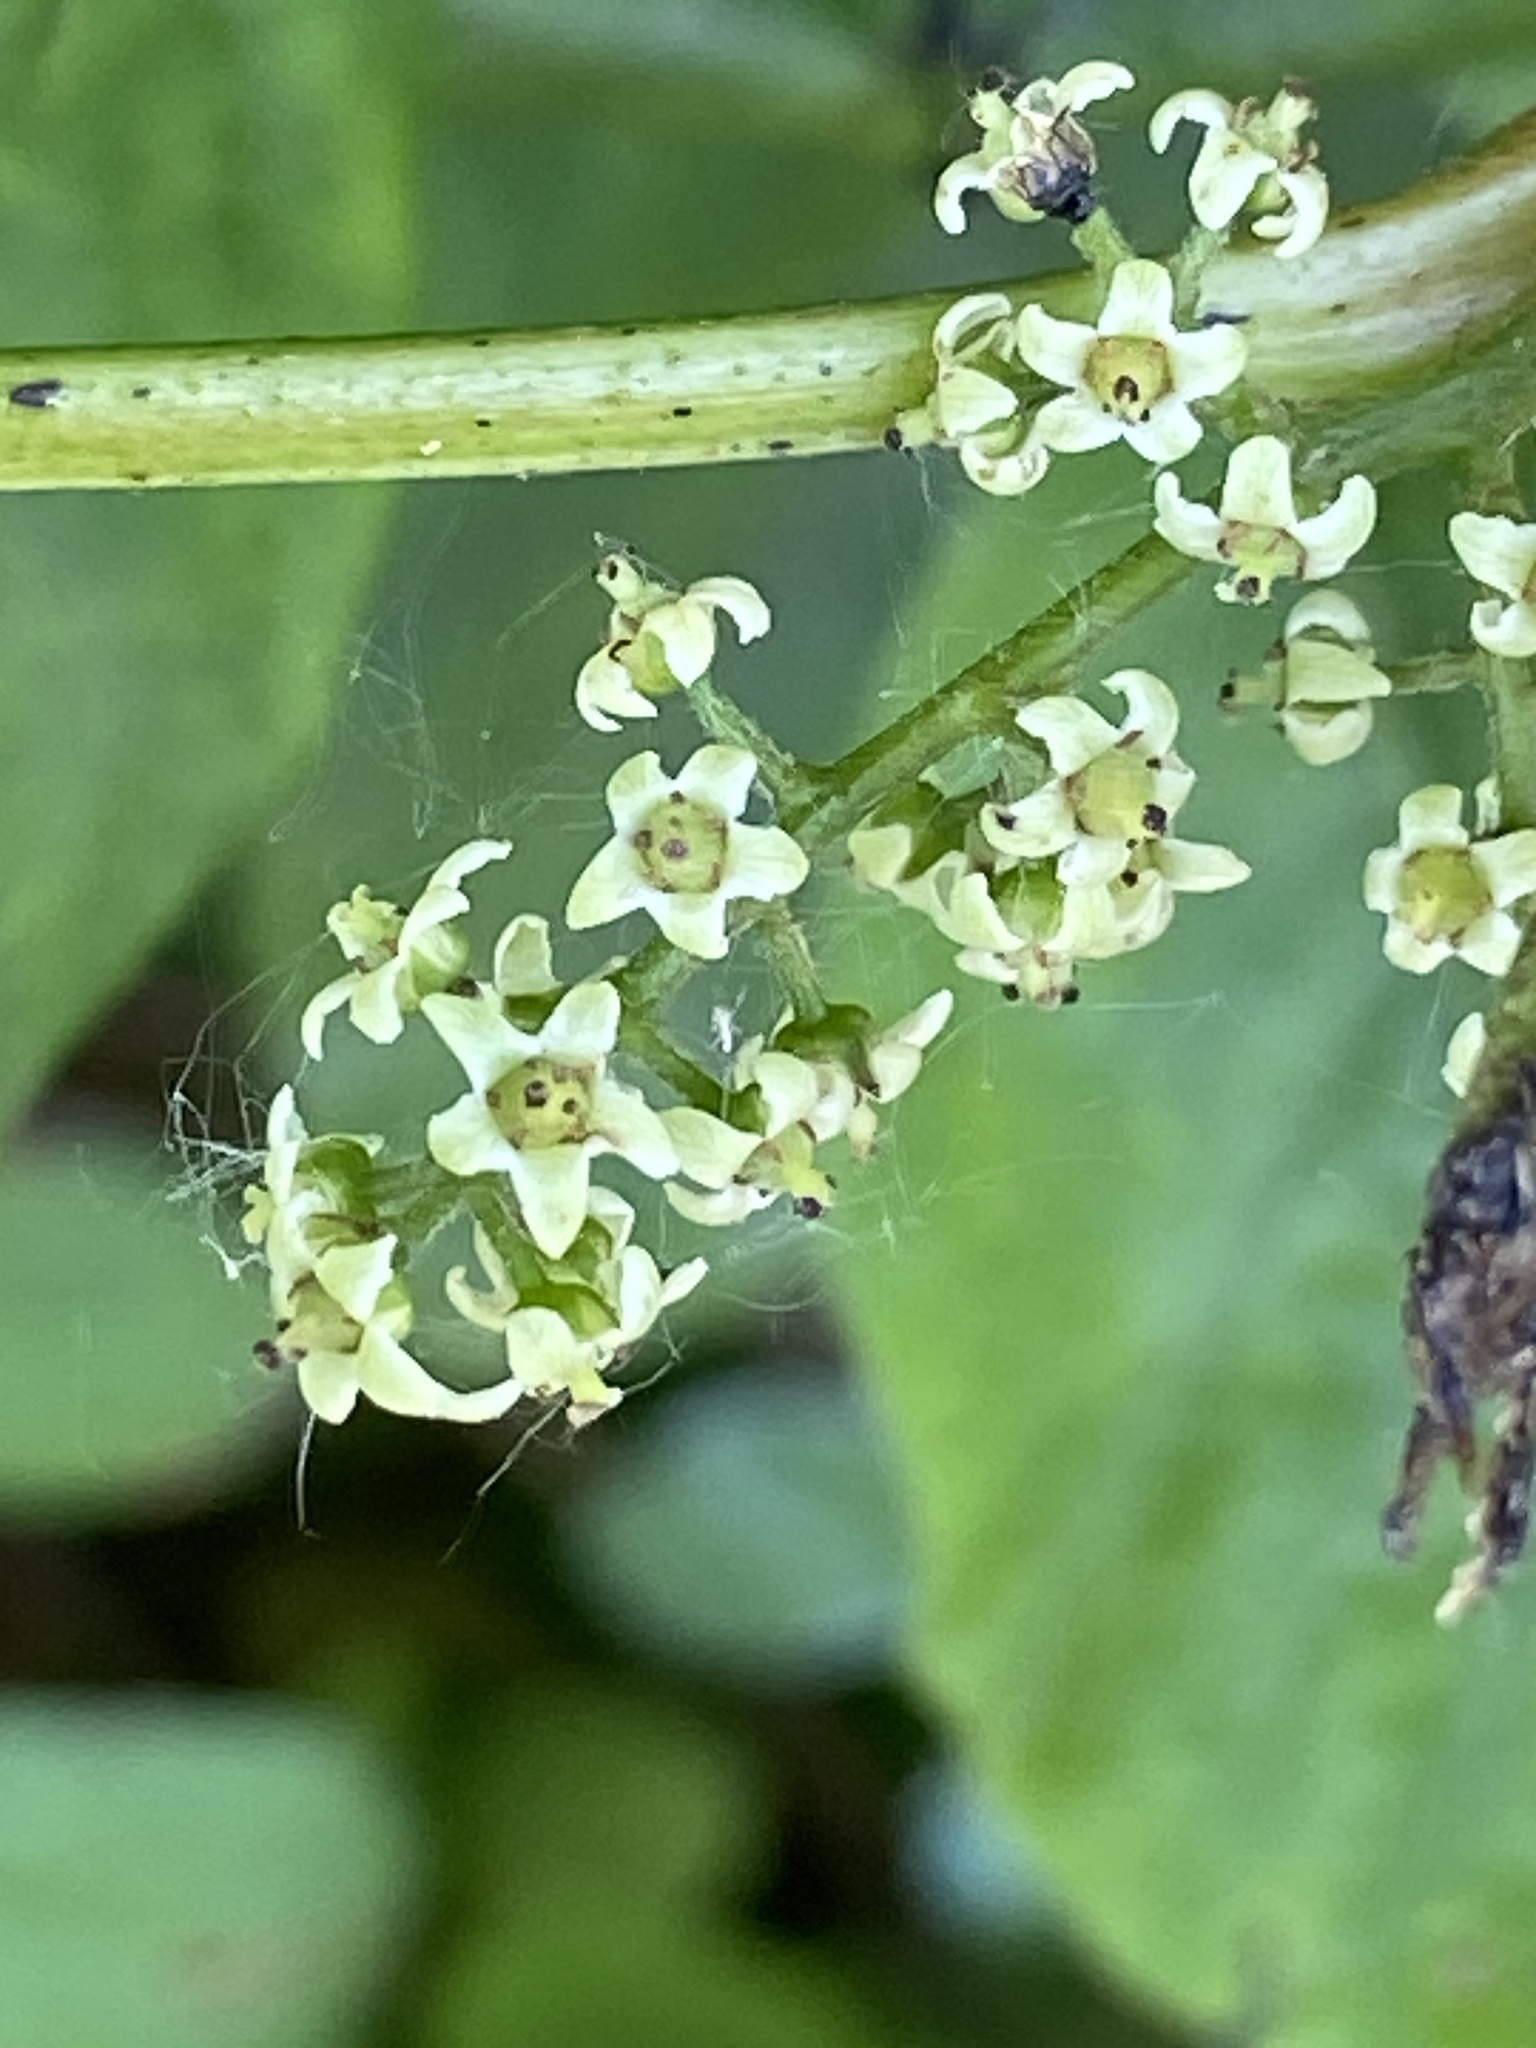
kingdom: Plantae
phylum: Tracheophyta
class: Magnoliopsida
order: Sapindales
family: Anacardiaceae
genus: Toxicodendron
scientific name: Toxicodendron radicans
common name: Poison ivy
